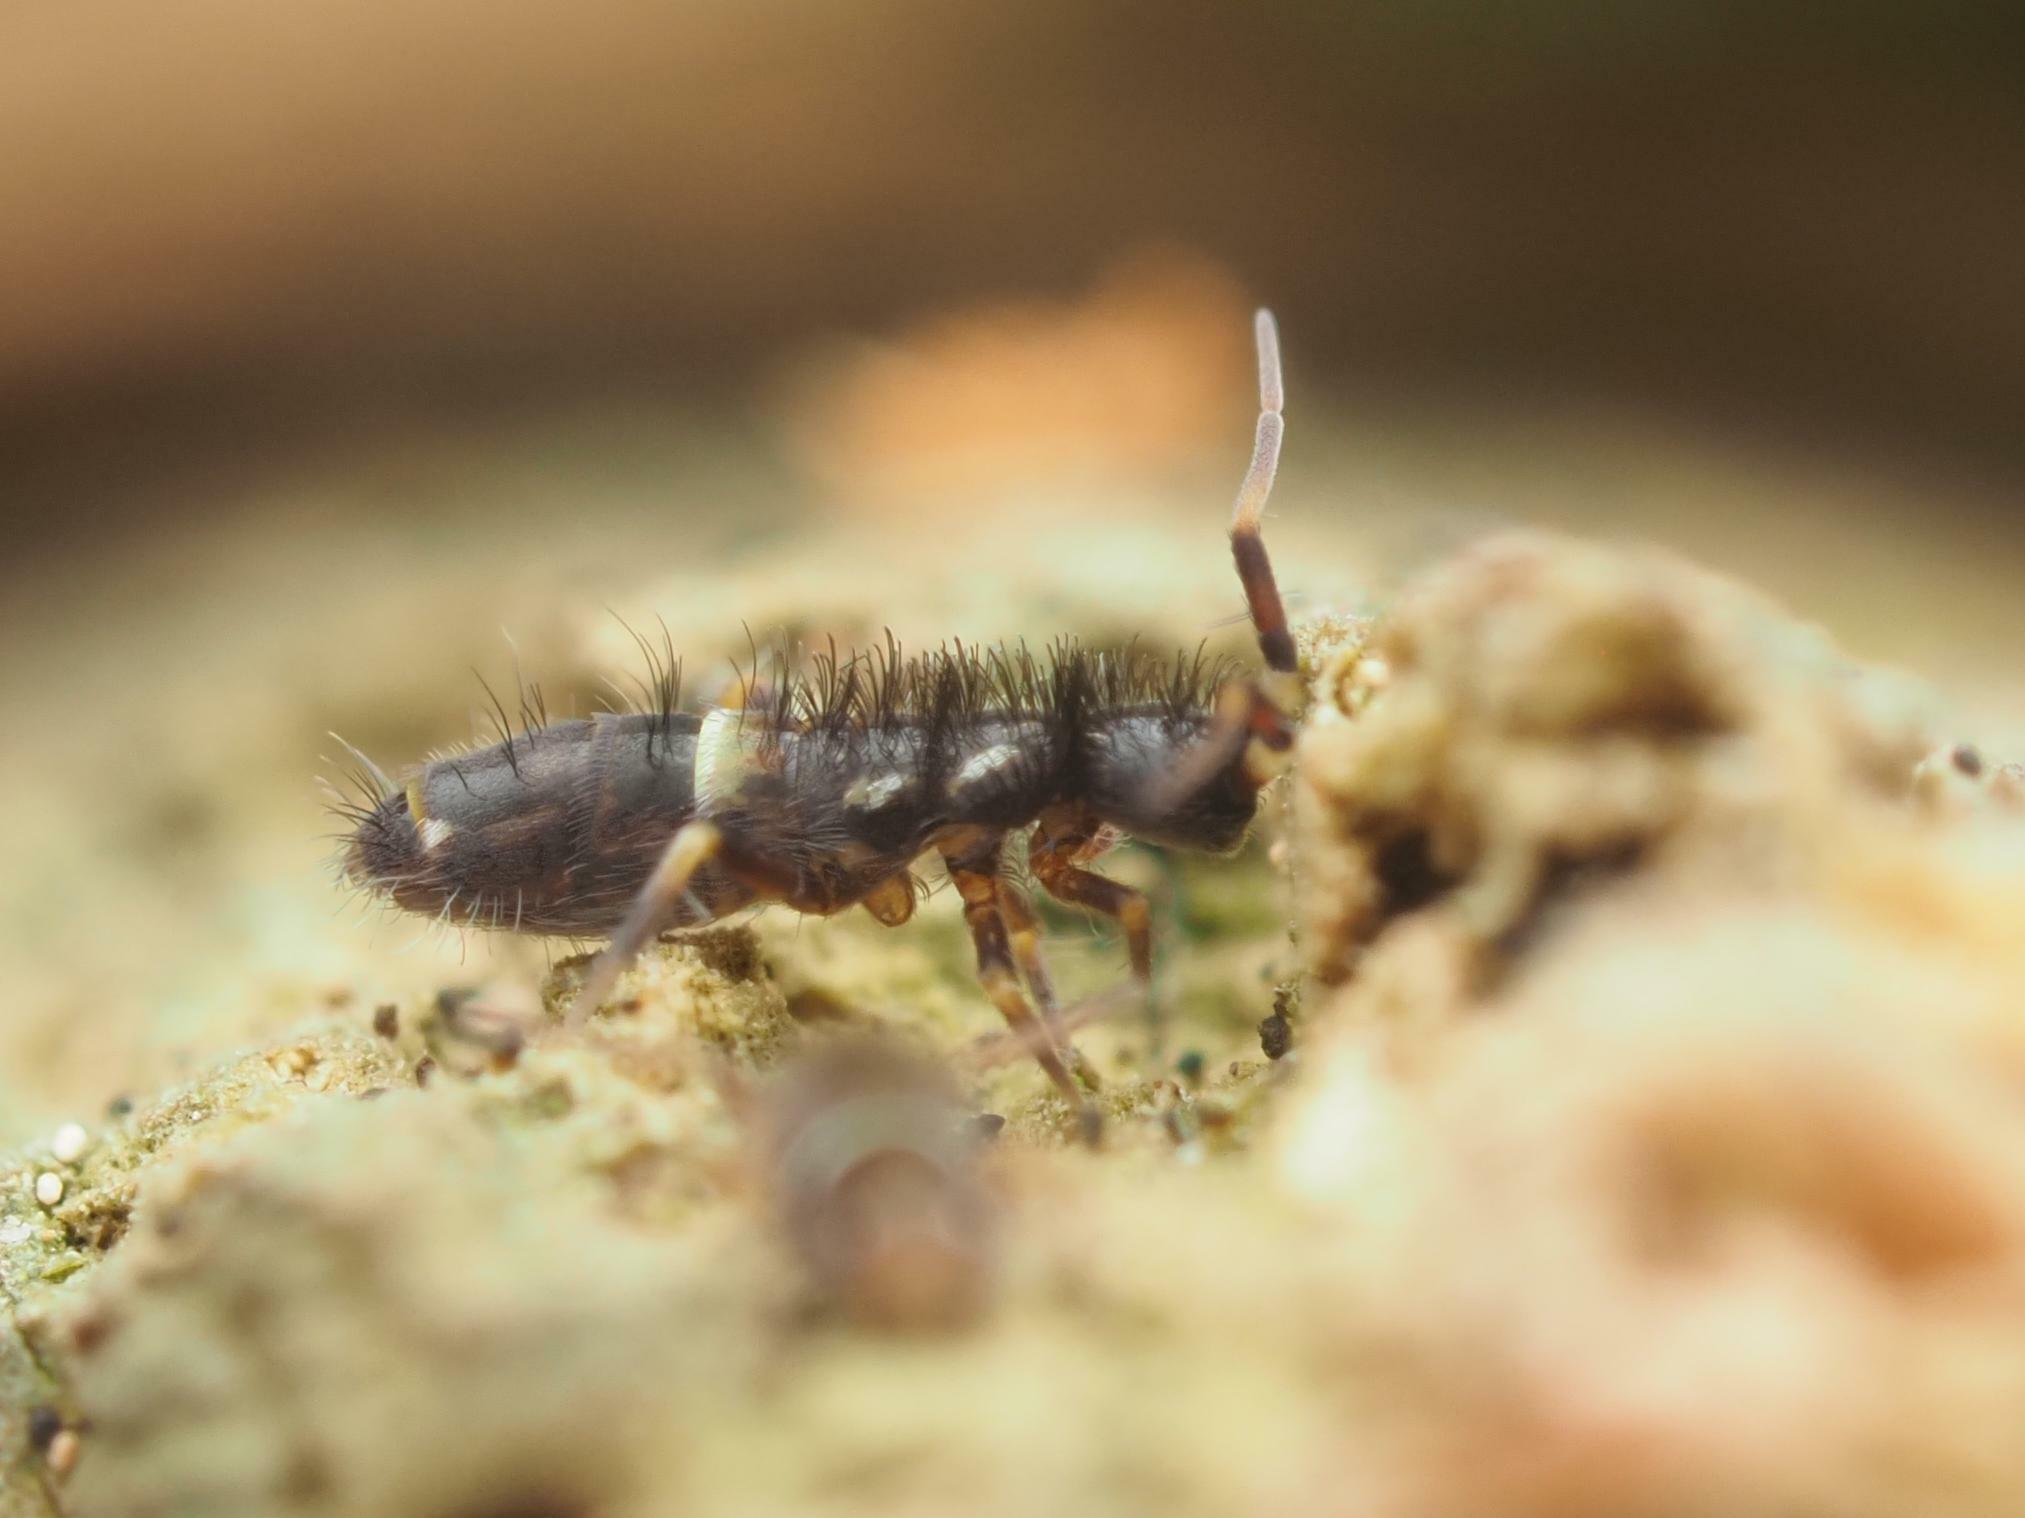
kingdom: Animalia
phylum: Arthropoda
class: Collembola
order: Entomobryomorpha
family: Orchesellidae
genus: Orchesella
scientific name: Orchesella cincta
